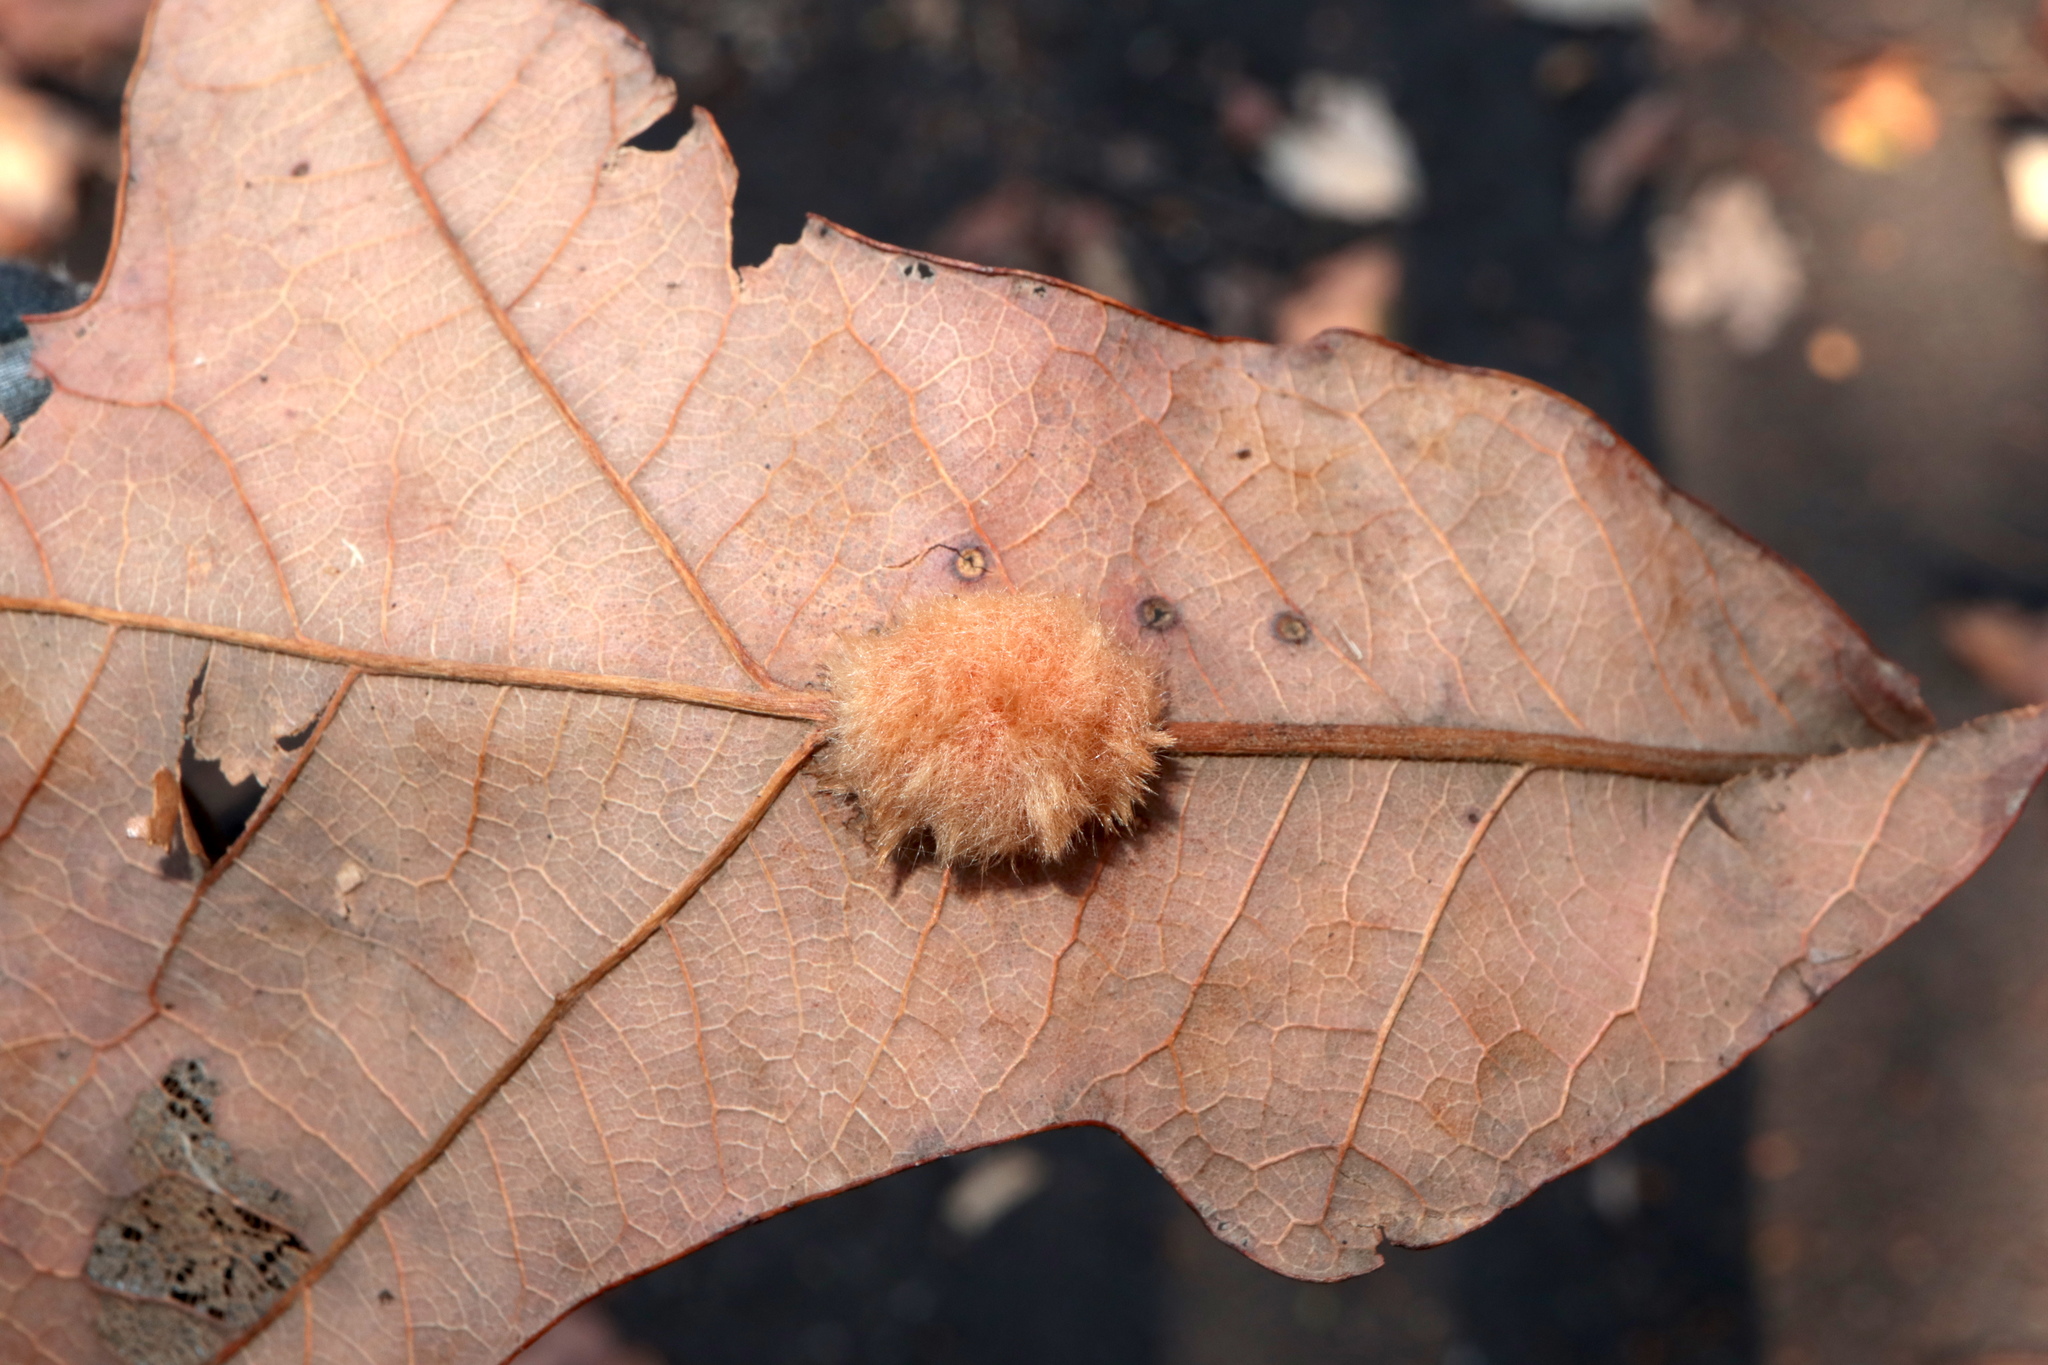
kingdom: Animalia
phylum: Arthropoda
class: Insecta
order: Hymenoptera
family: Cynipidae
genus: Andricus
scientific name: Andricus Druon pattoni
